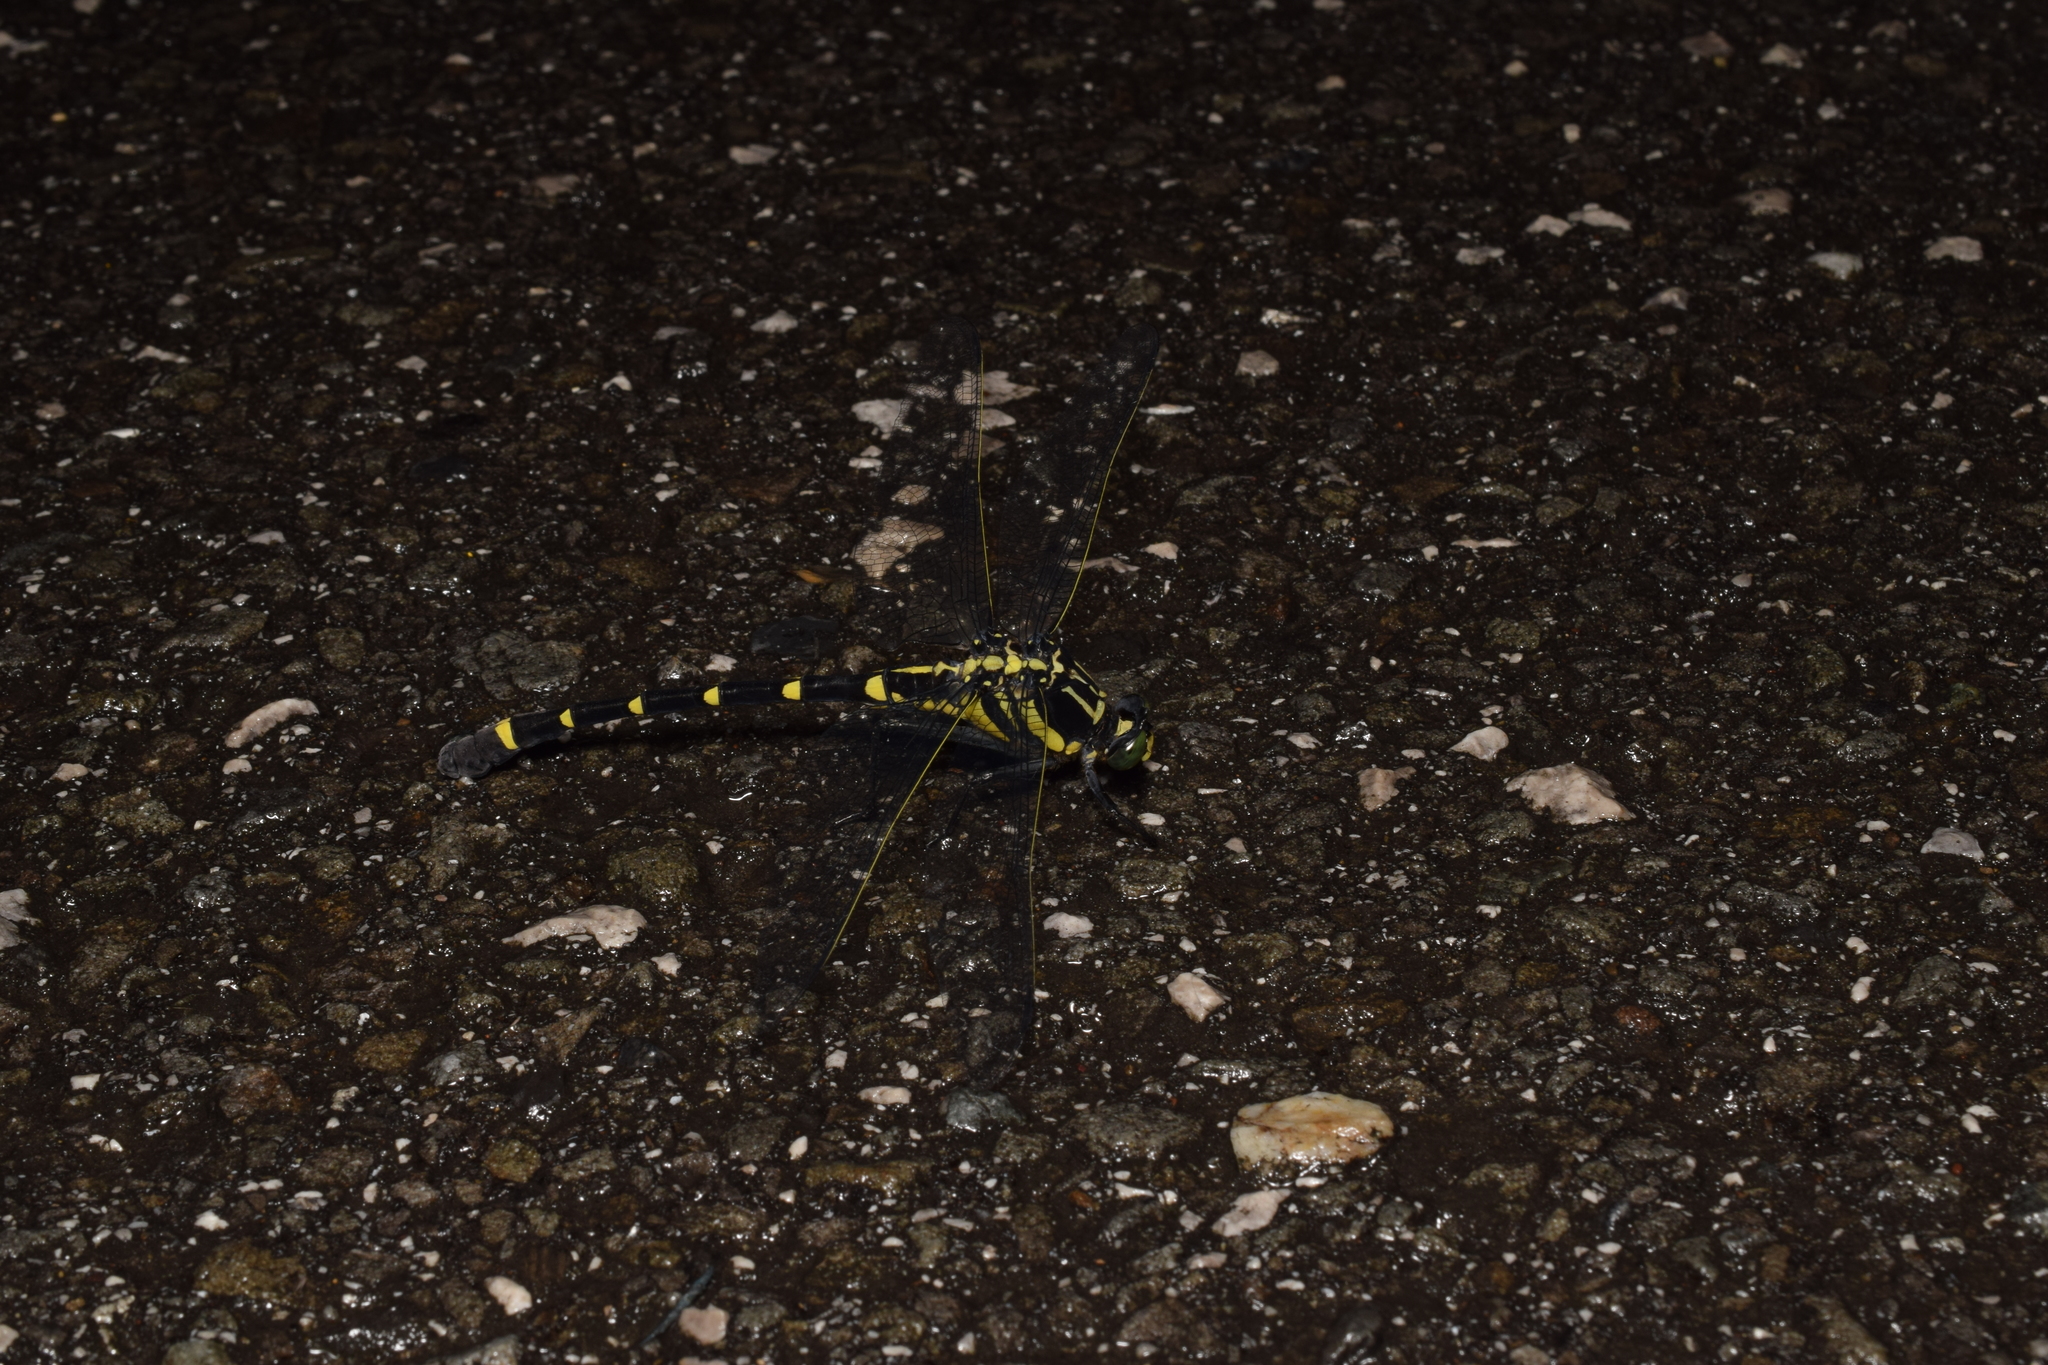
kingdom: Animalia
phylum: Arthropoda
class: Insecta
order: Odonata
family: Gomphidae
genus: Sieboldius
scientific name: Sieboldius albardae
